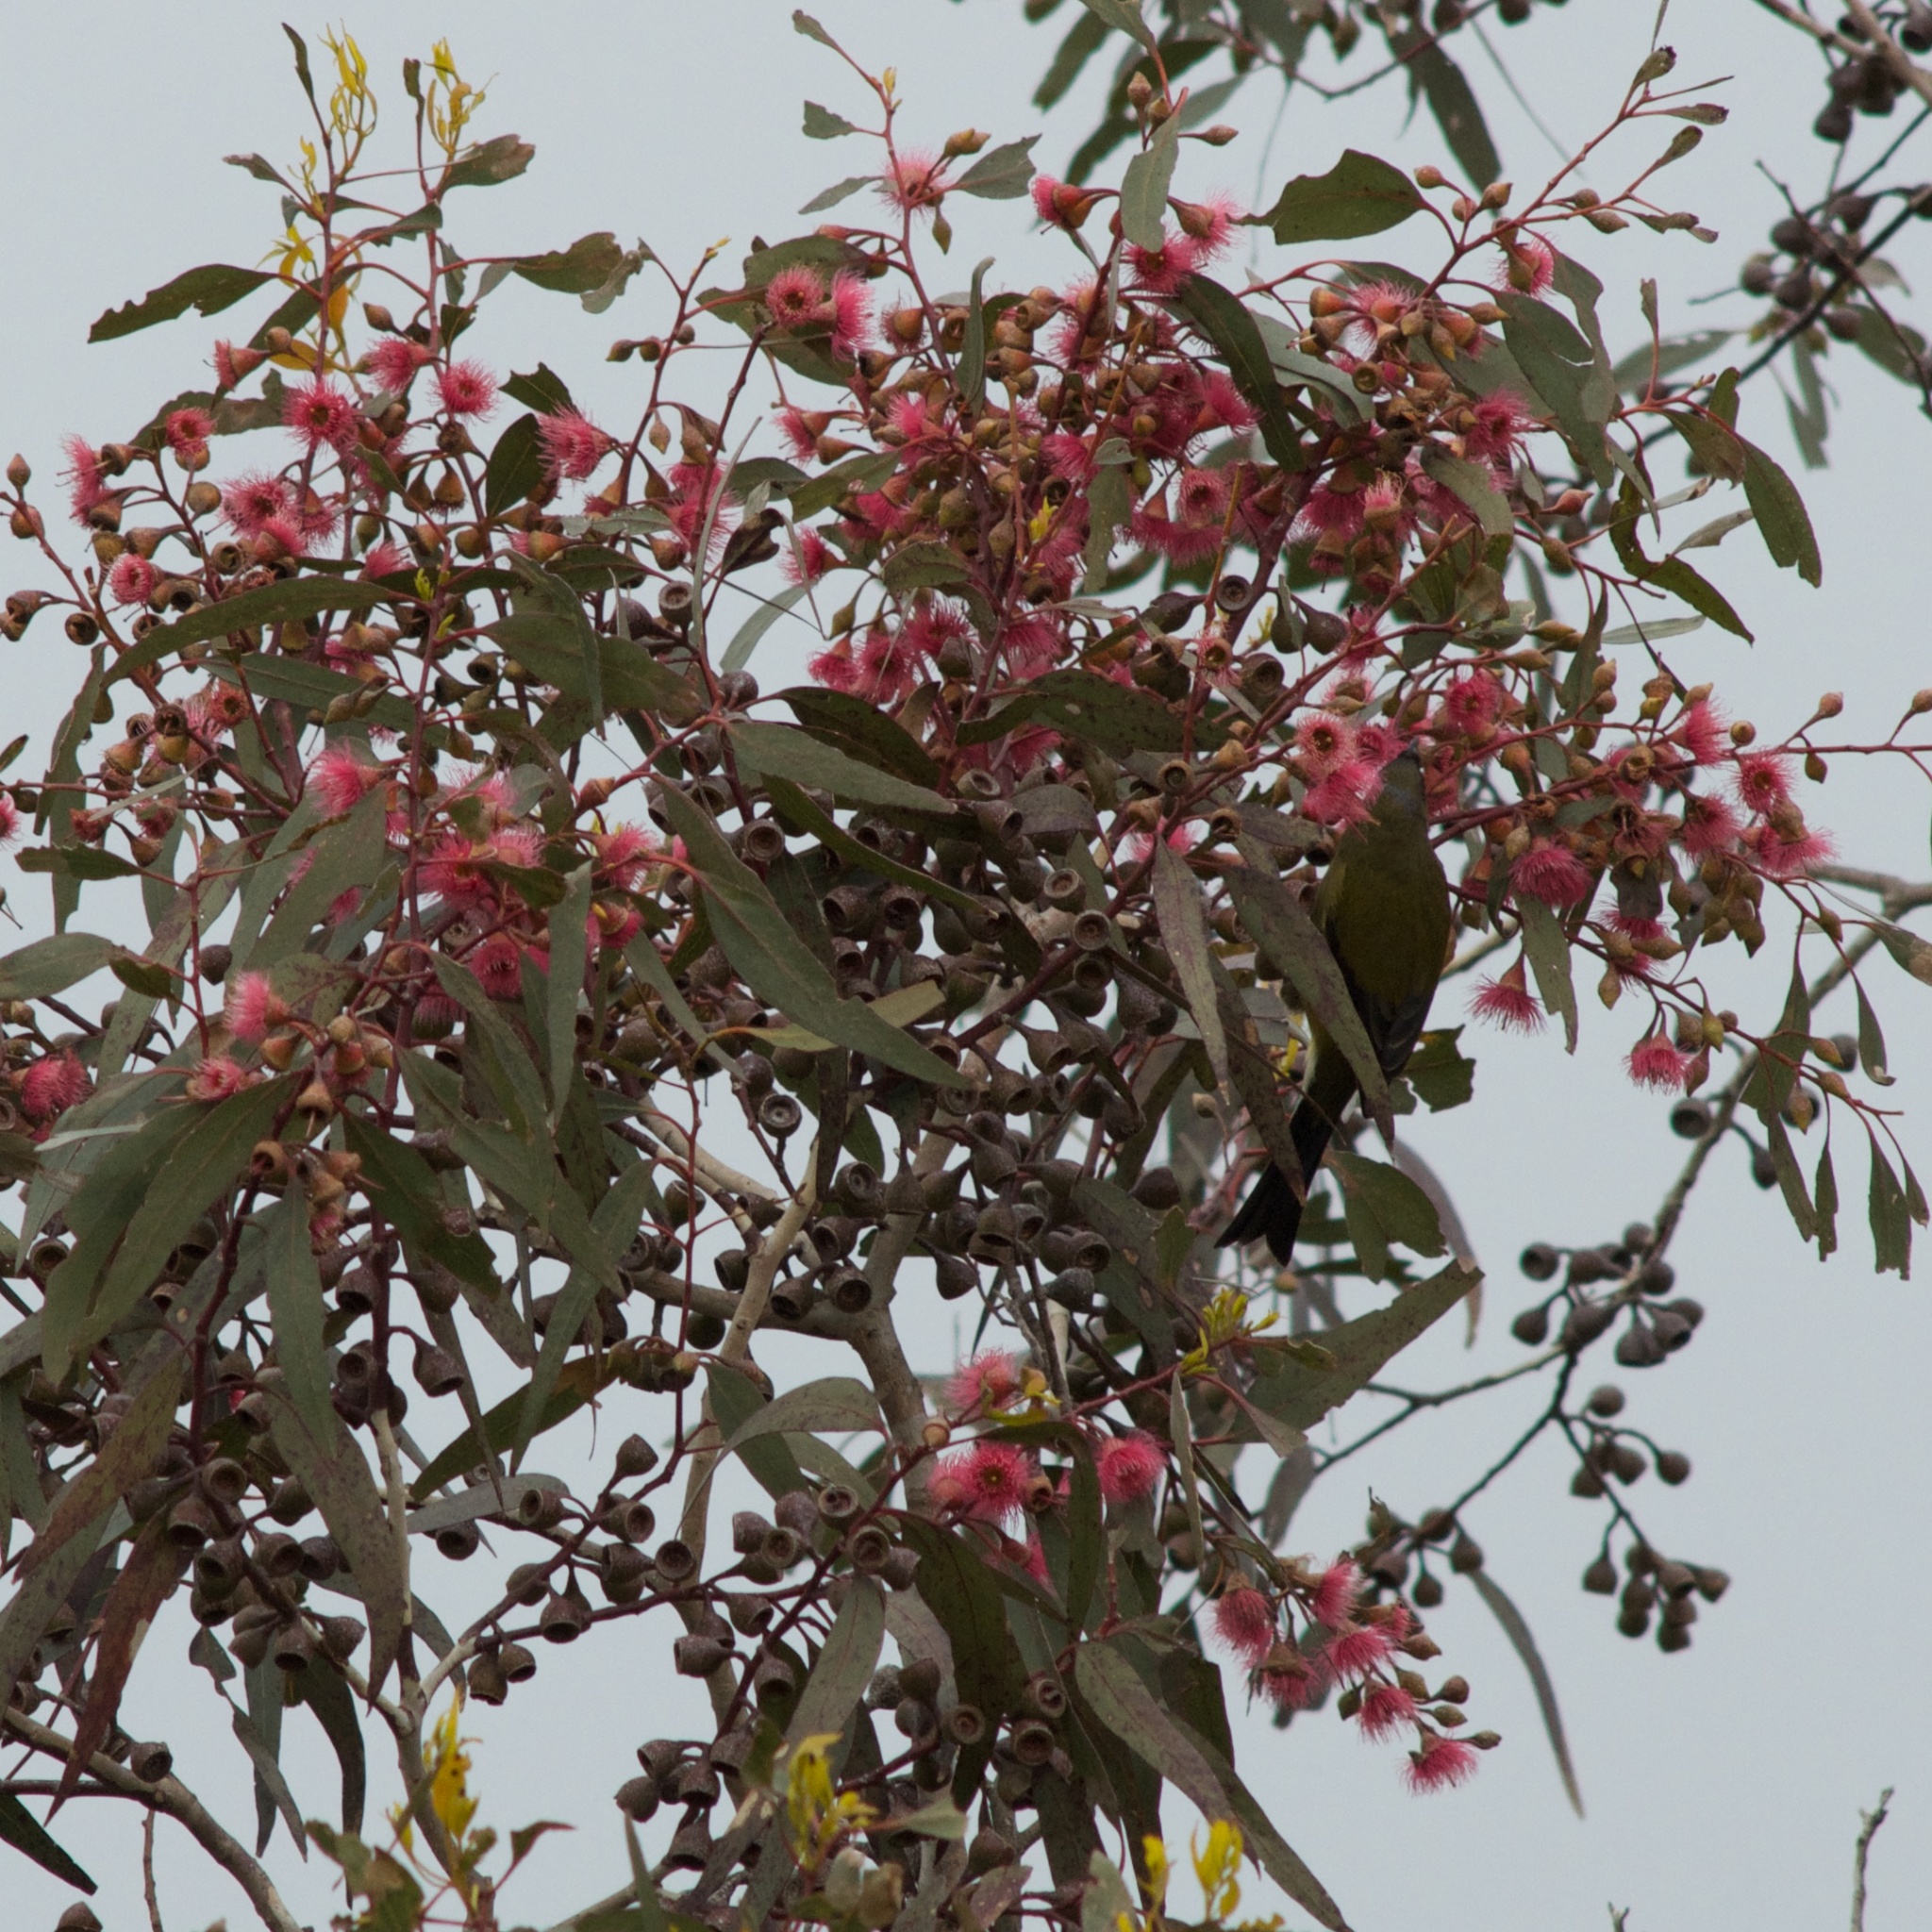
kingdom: Animalia
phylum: Chordata
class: Aves
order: Passeriformes
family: Meliphagidae
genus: Anthornis
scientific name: Anthornis melanura
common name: New zealand bellbird
